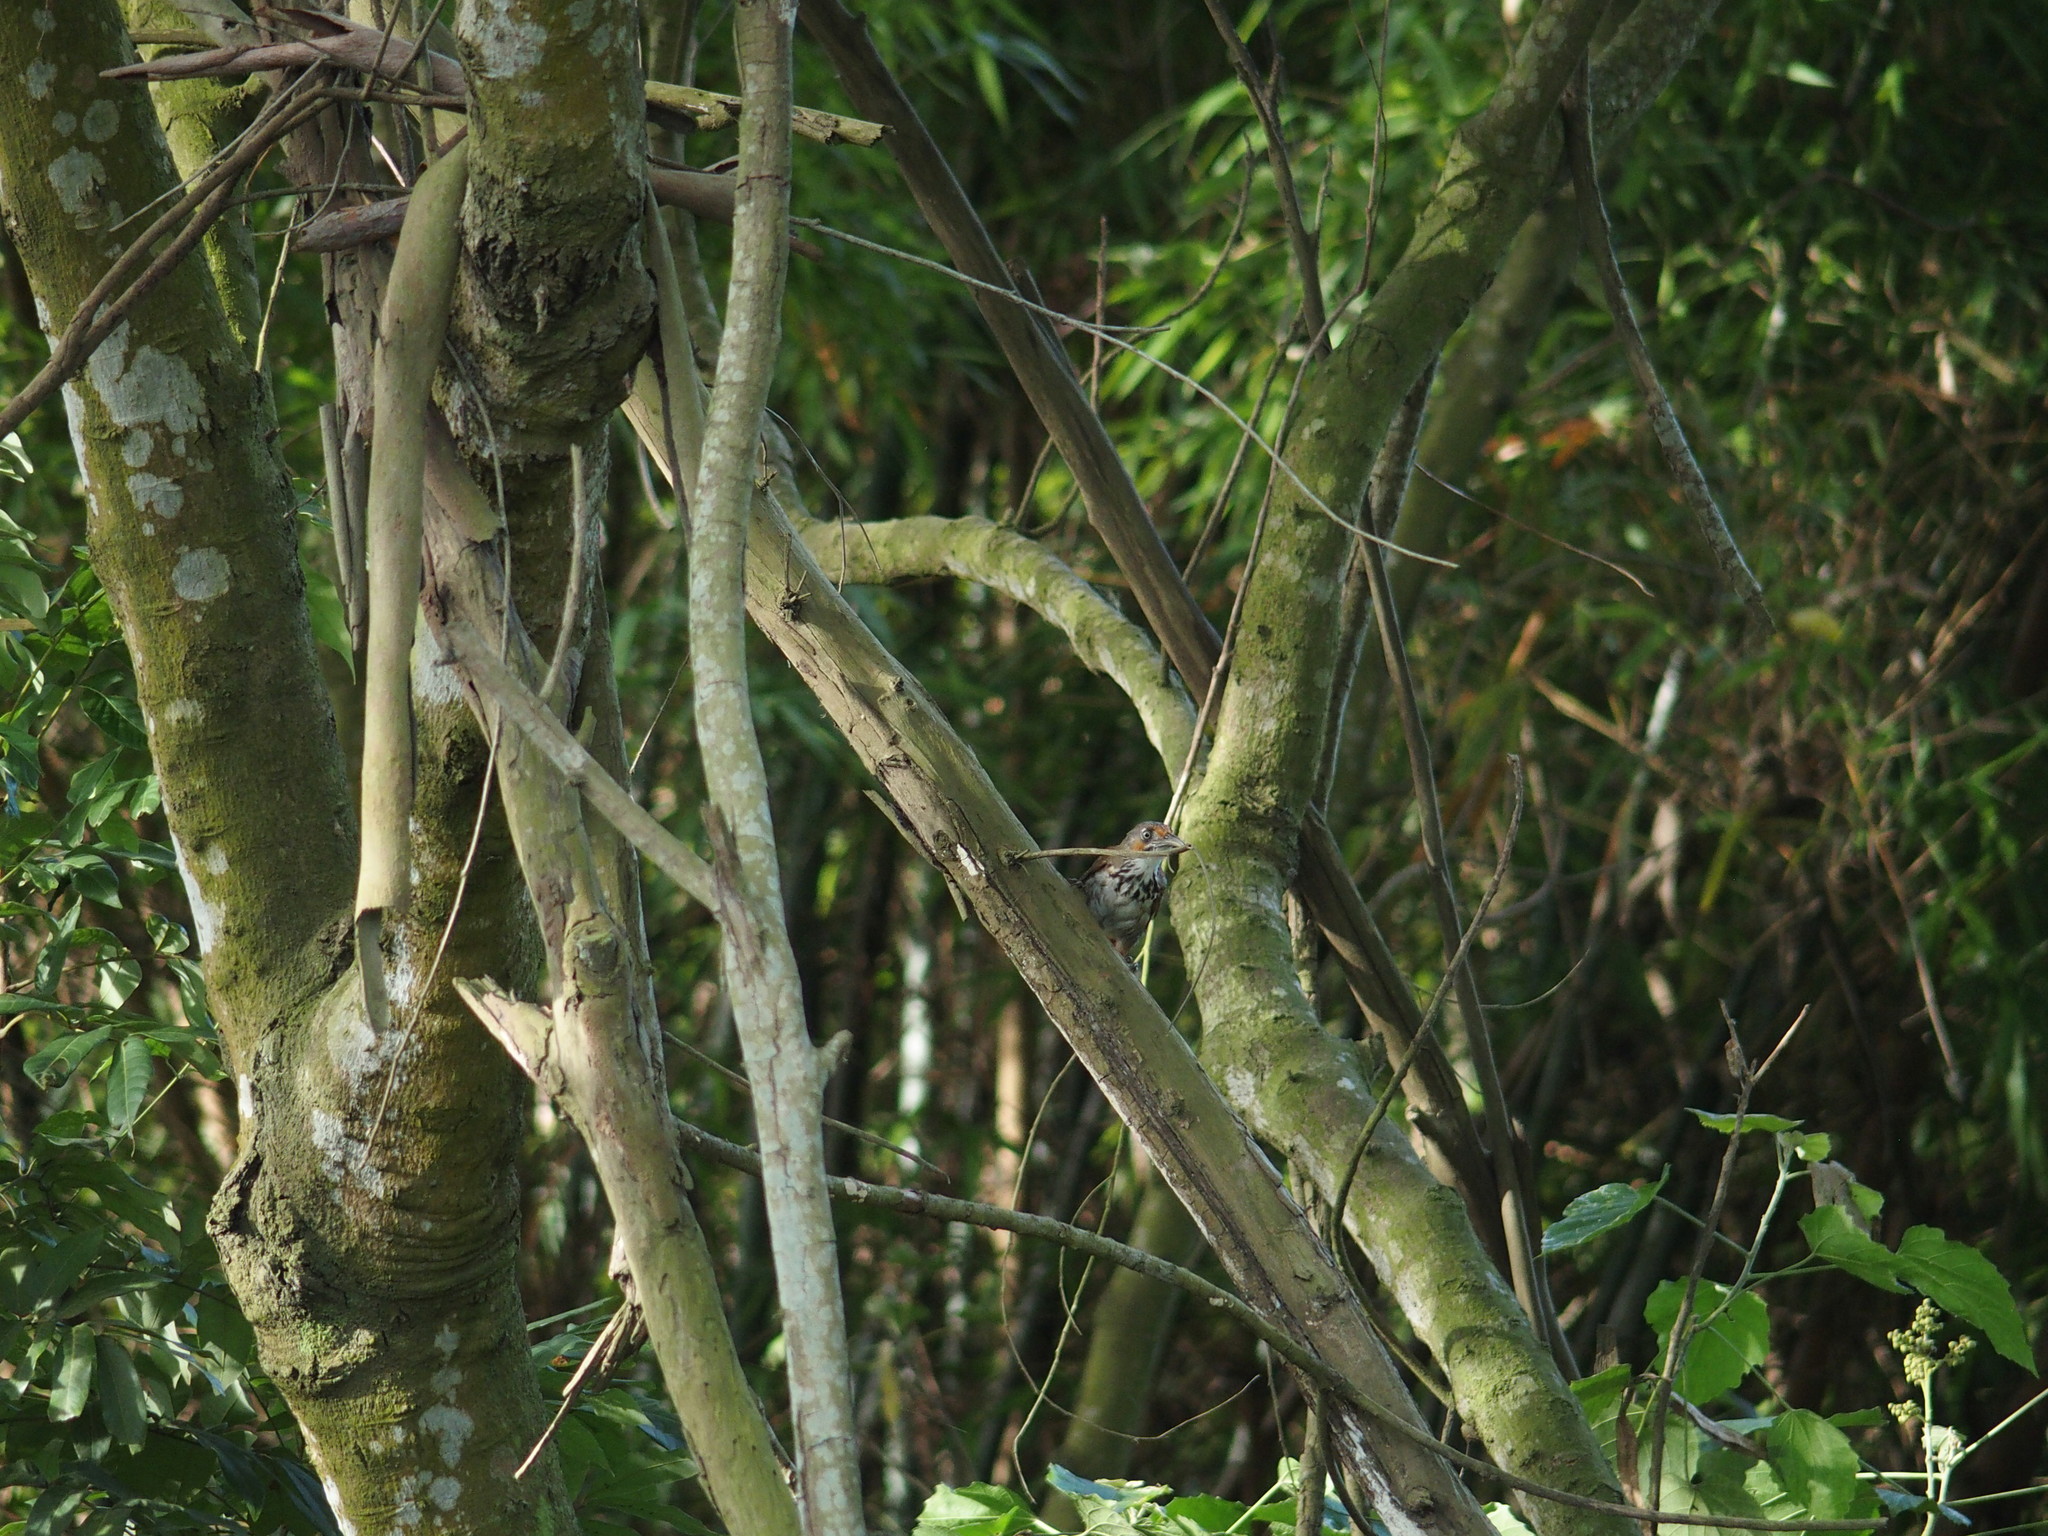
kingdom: Animalia
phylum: Chordata
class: Aves
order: Passeriformes
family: Timaliidae
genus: Pomatorhinus
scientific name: Pomatorhinus erythrocnemis
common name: Spot-breasted scimitar babbler
